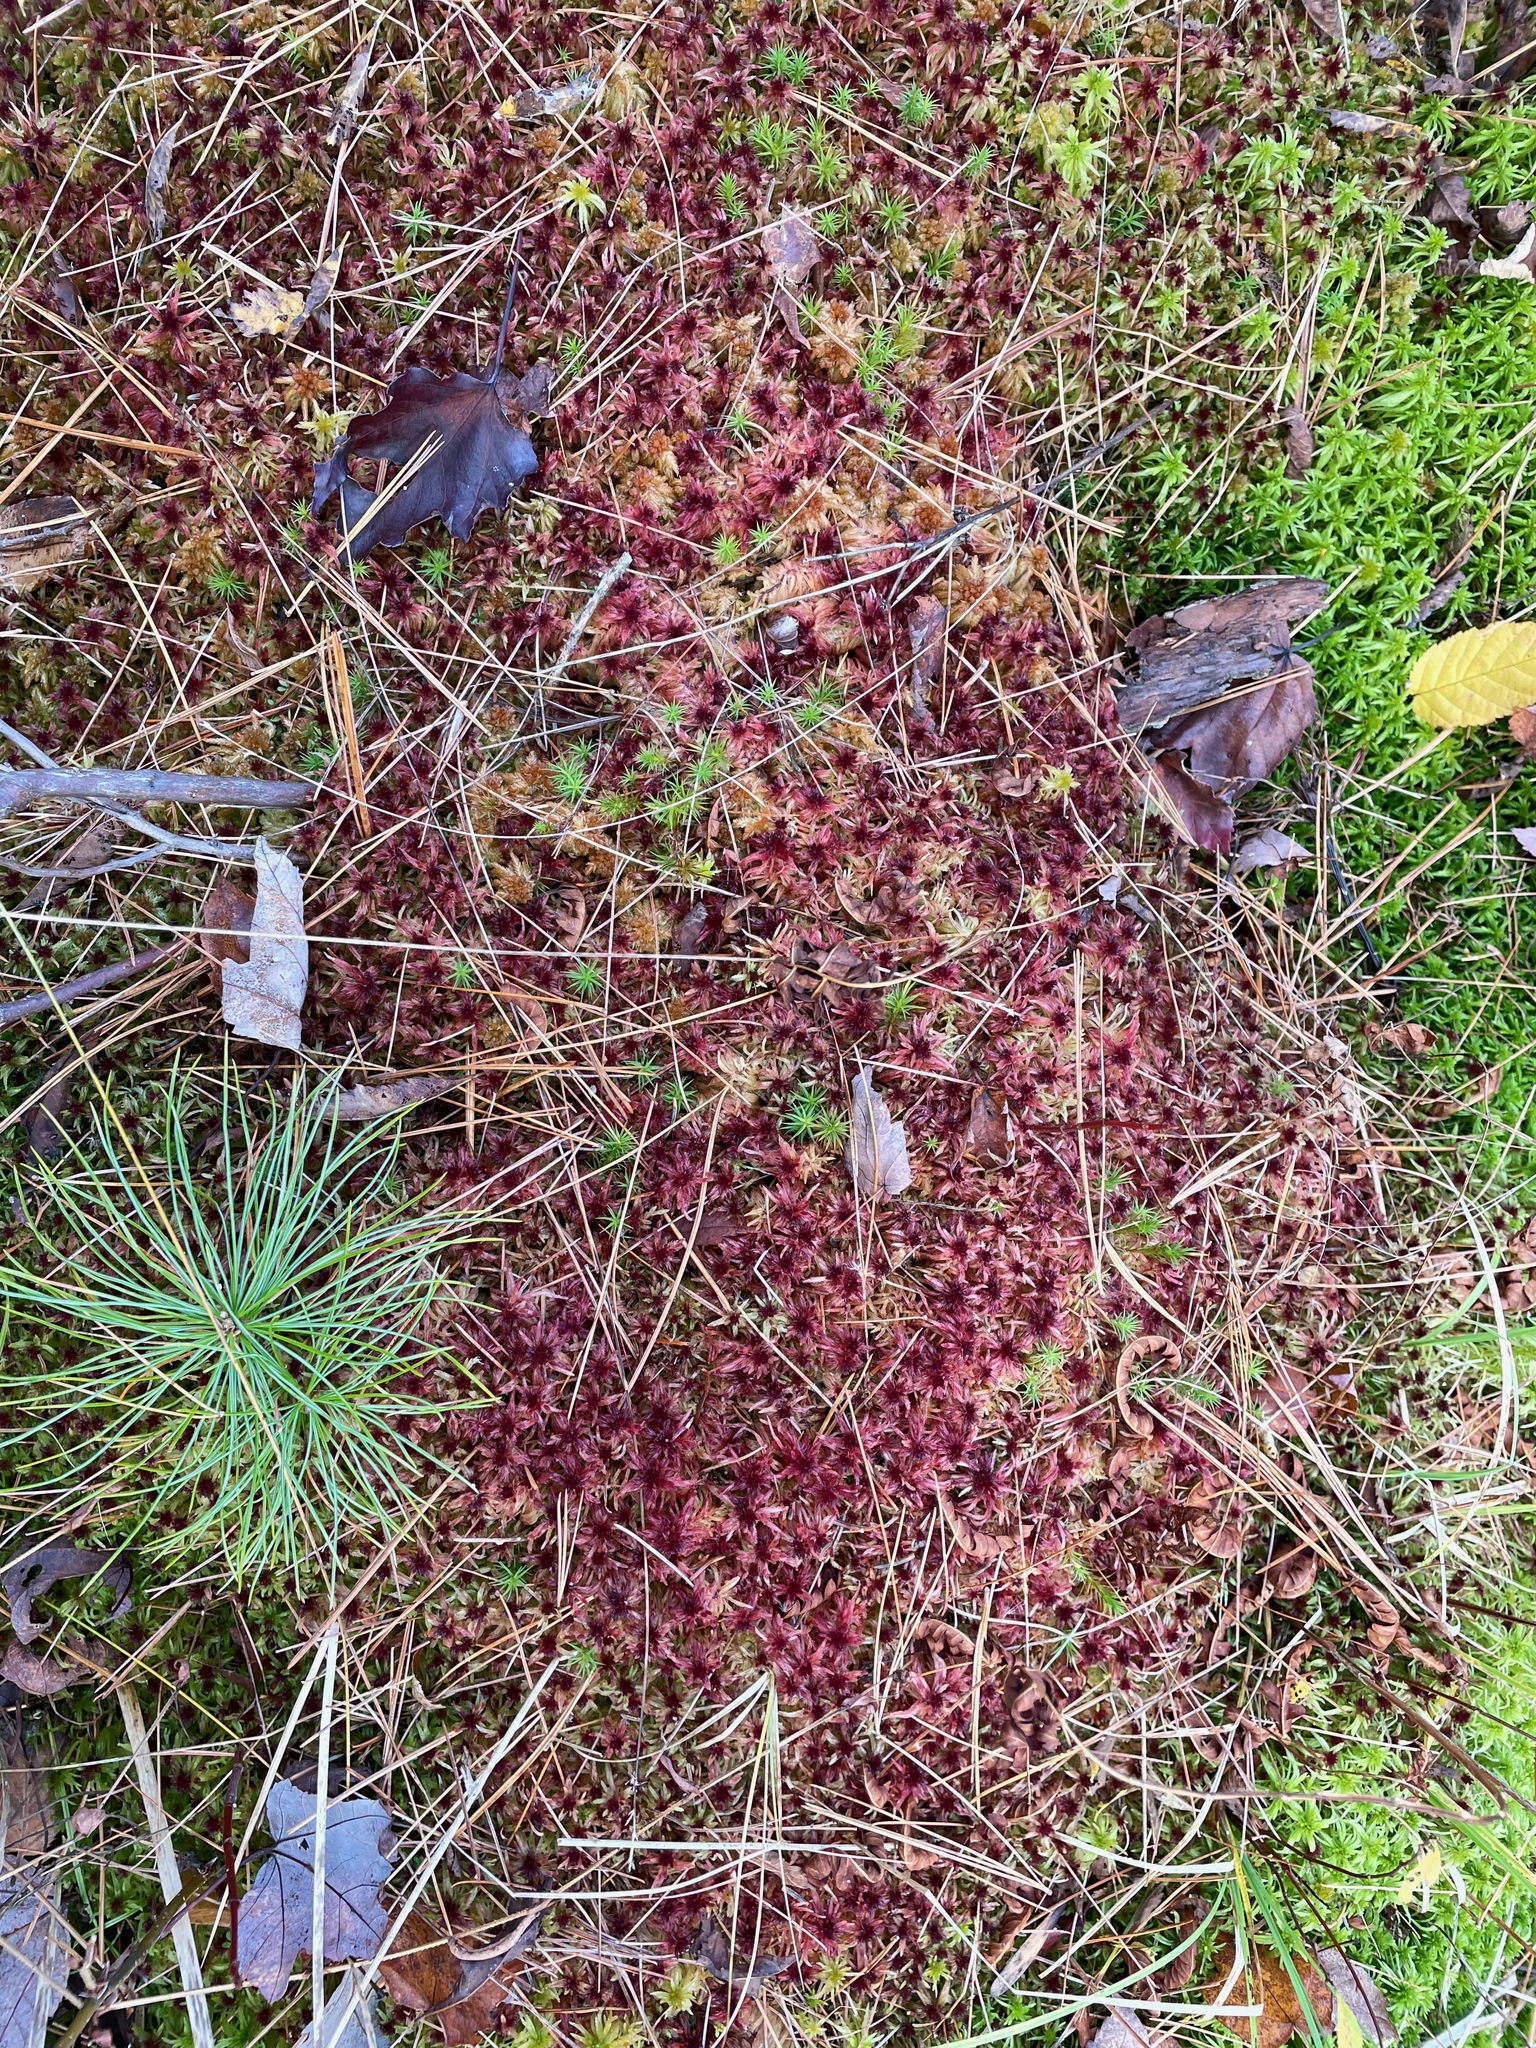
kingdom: Plantae
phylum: Bryophyta
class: Sphagnopsida
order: Sphagnales
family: Sphagnaceae
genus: Sphagnum
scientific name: Sphagnum russowii
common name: Russow's peat moss
